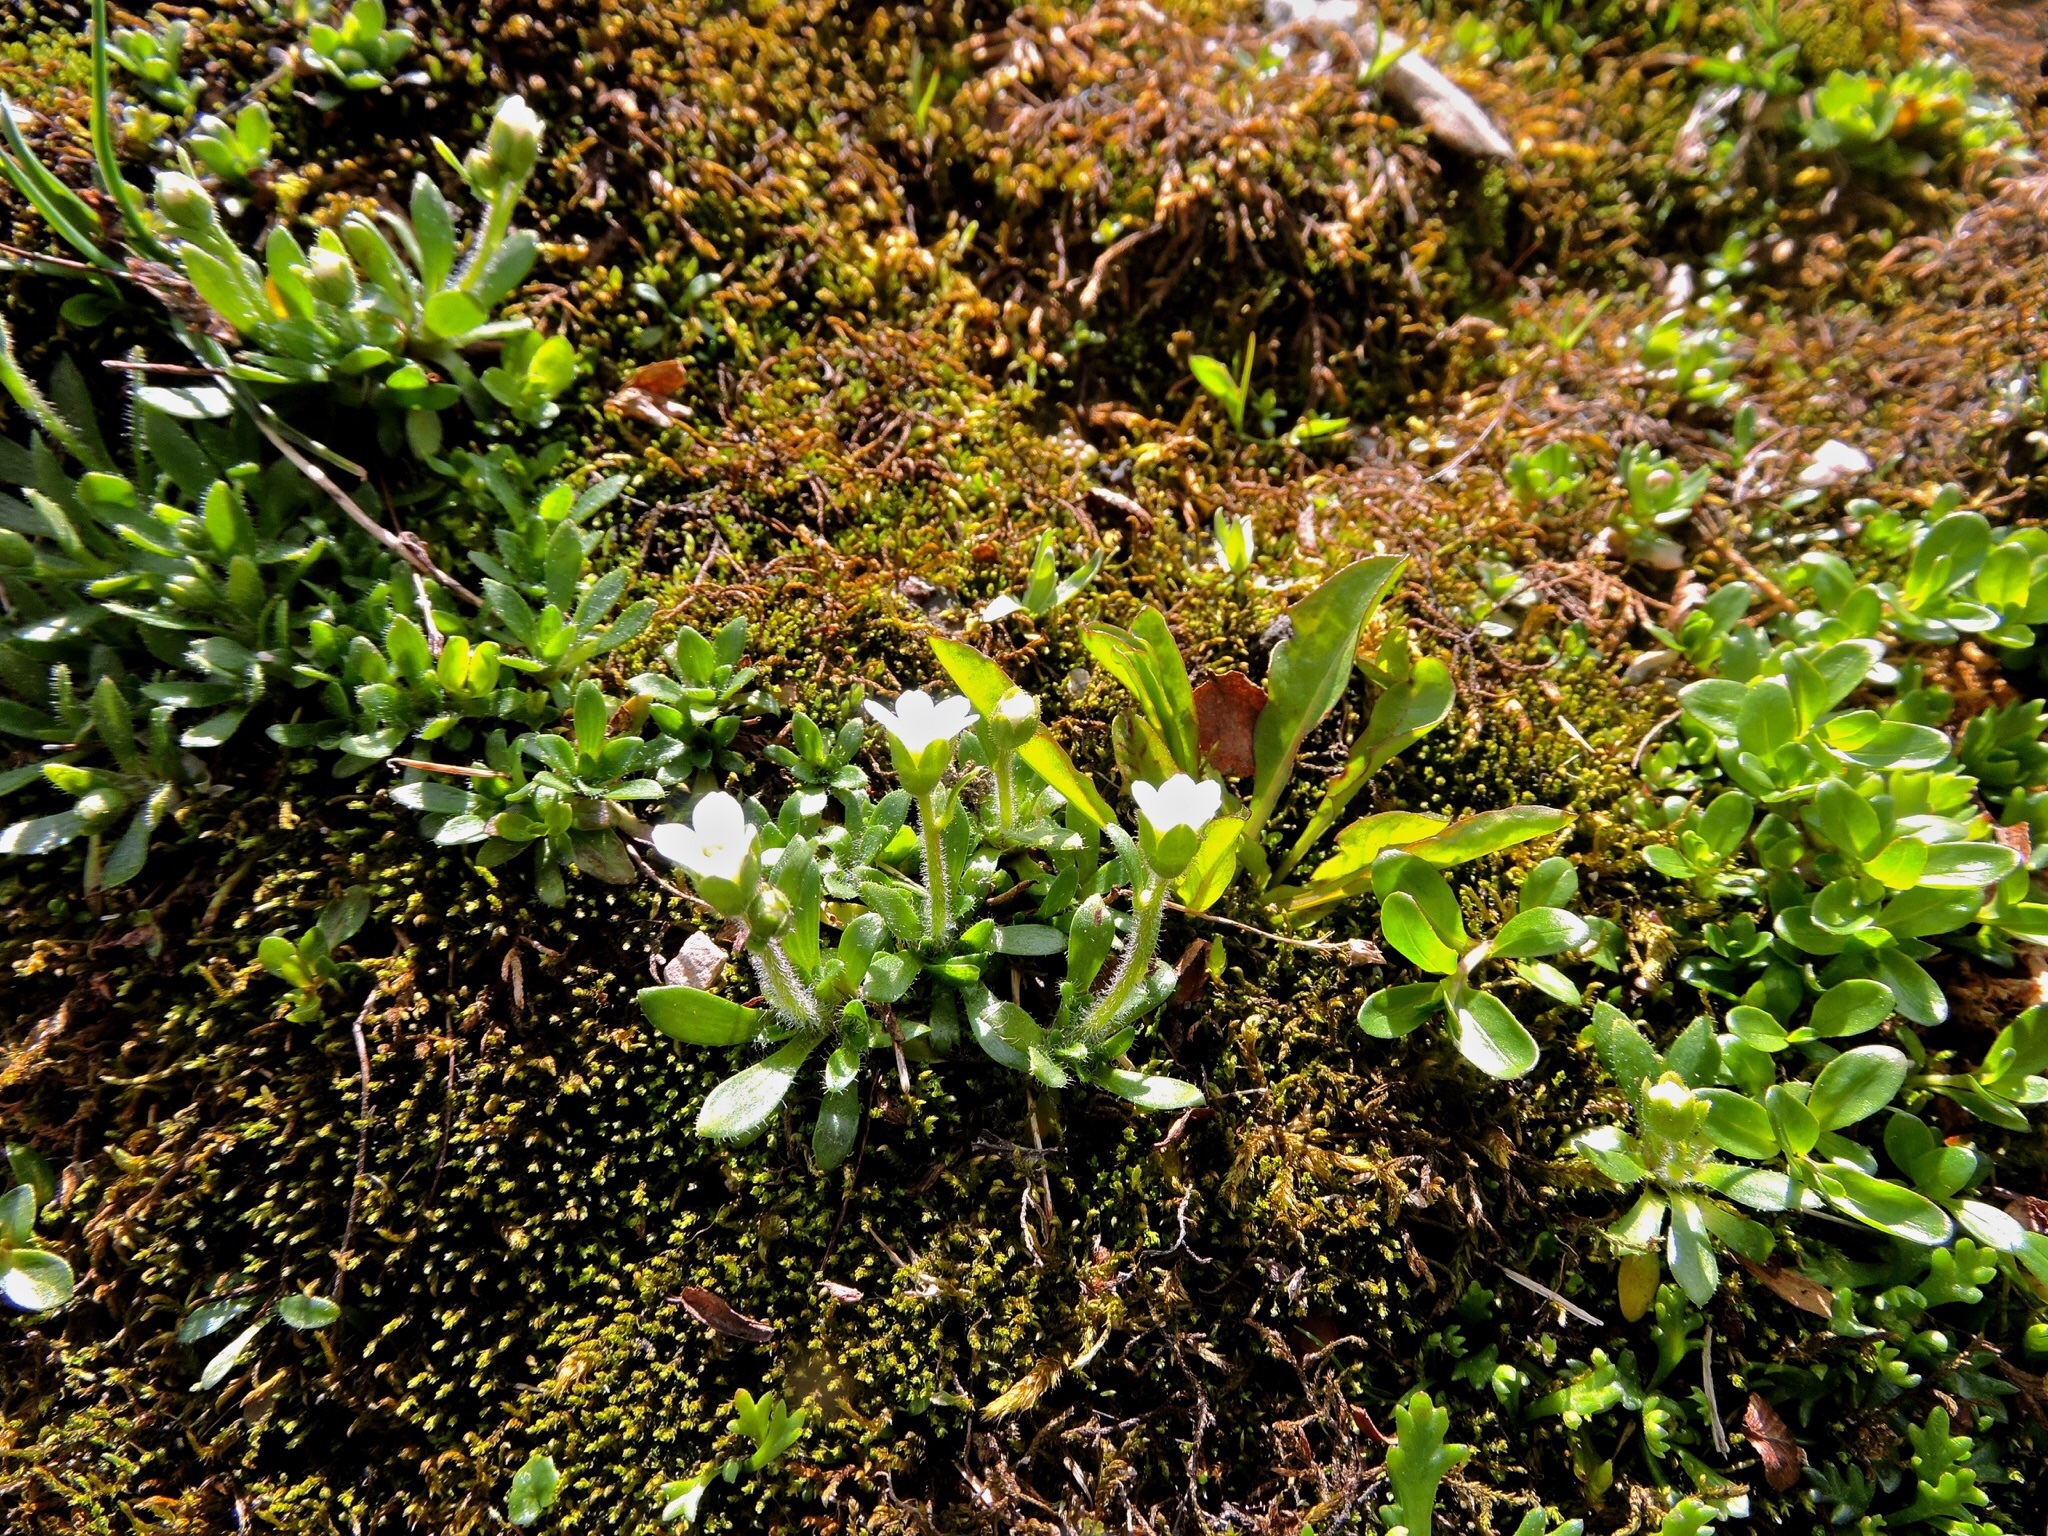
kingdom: Plantae
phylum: Tracheophyta
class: Magnoliopsida
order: Saxifragales
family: Saxifragaceae
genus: Saxifraga
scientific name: Saxifraga androsacea
